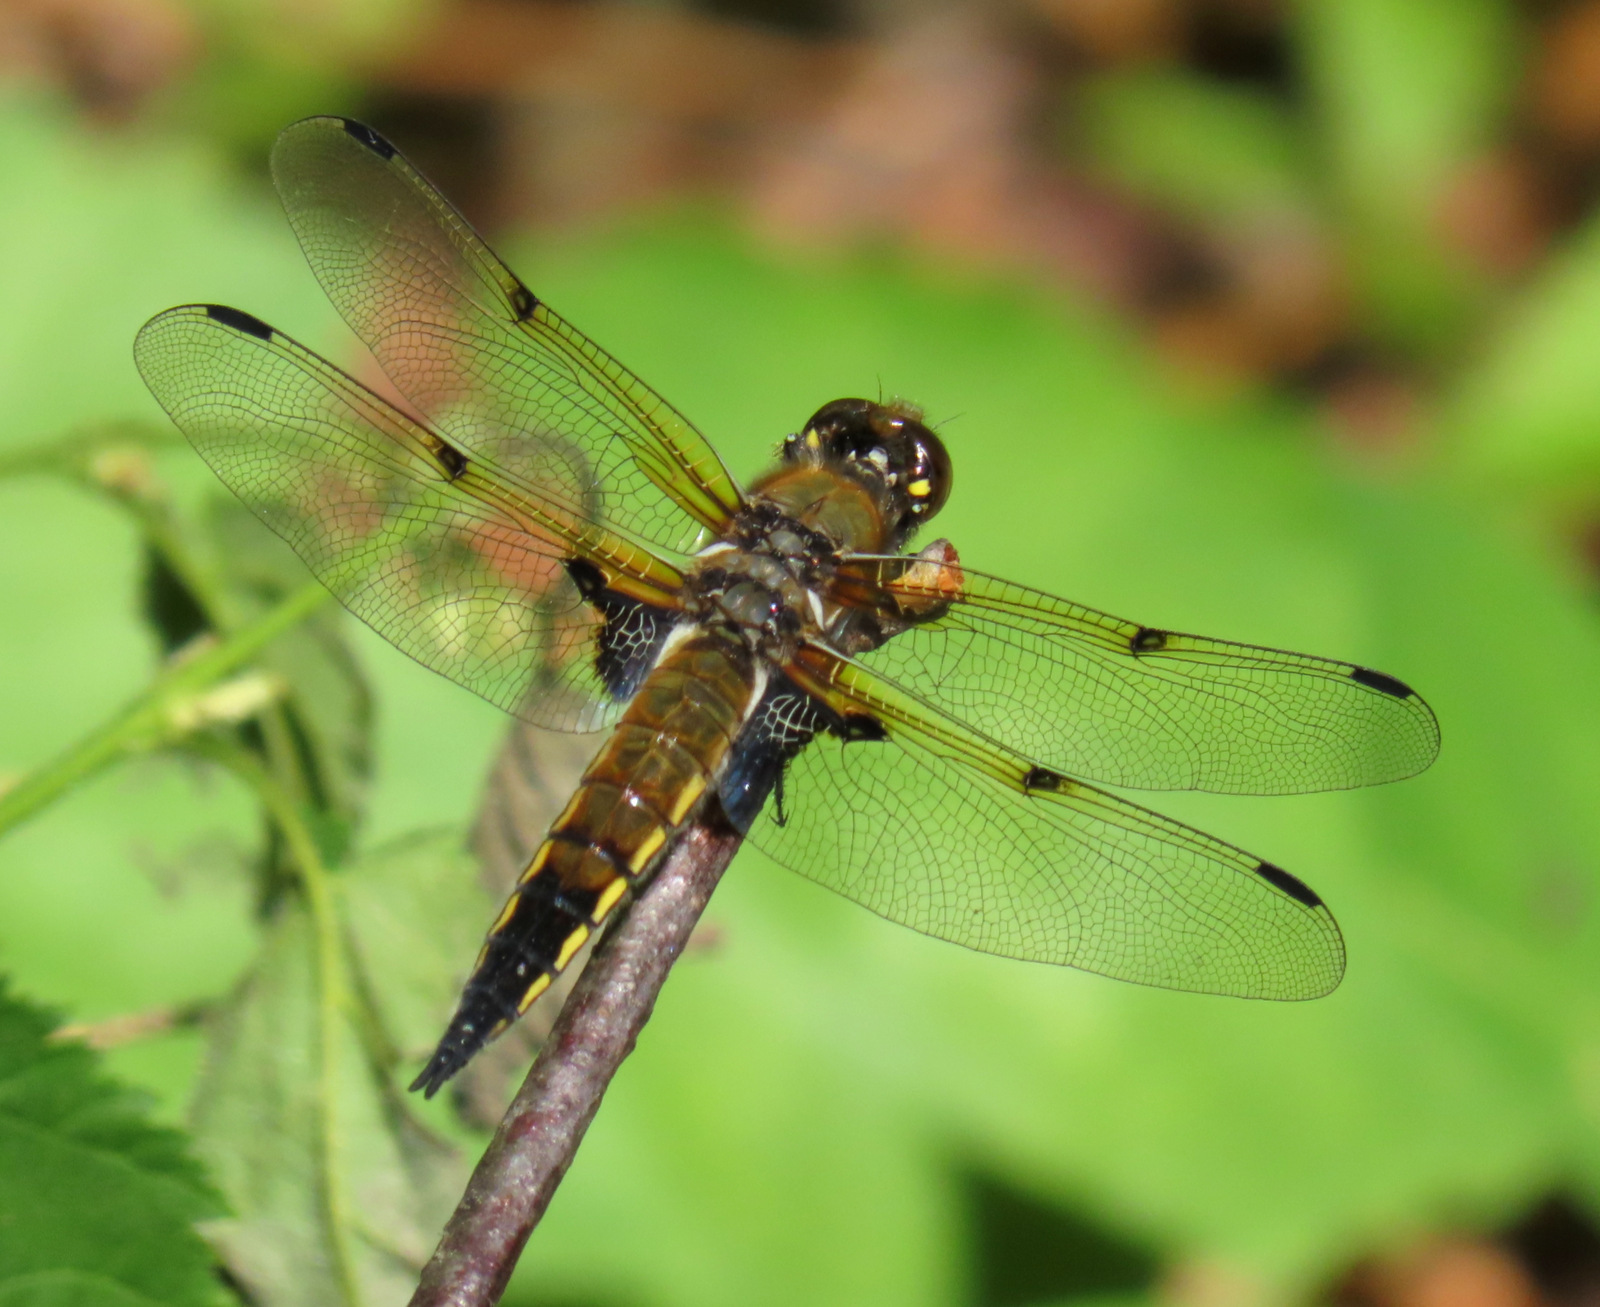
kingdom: Animalia
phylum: Arthropoda
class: Insecta
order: Odonata
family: Libellulidae
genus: Libellula
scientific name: Libellula quadrimaculata
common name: Four-spotted chaser
